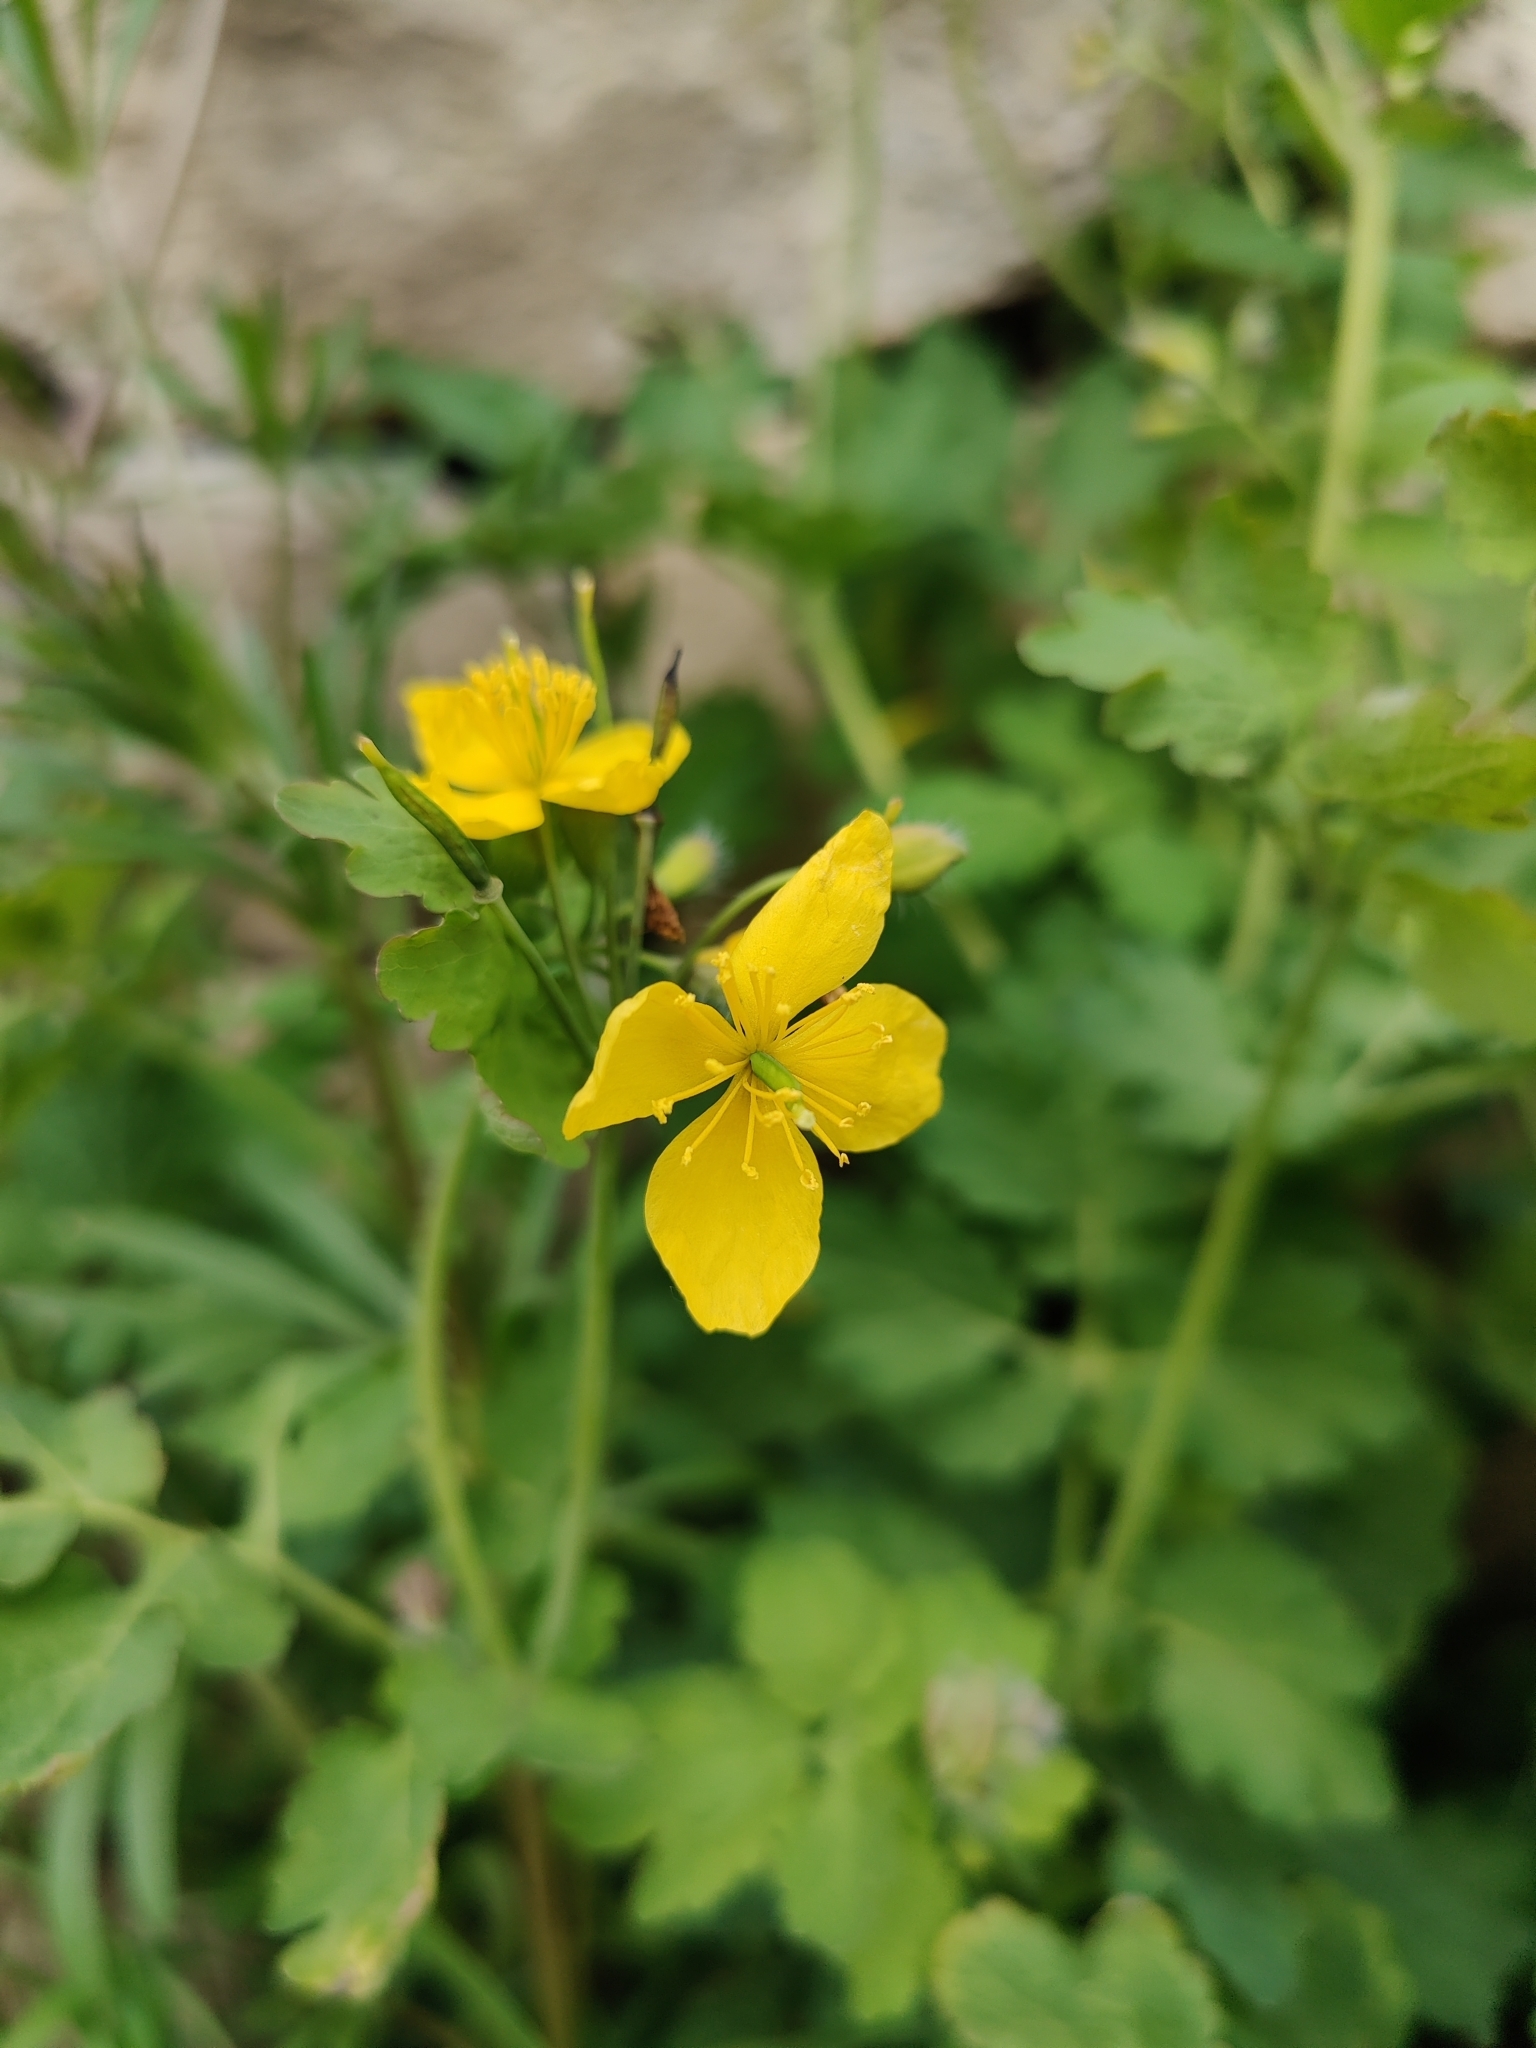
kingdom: Plantae
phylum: Tracheophyta
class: Magnoliopsida
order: Ranunculales
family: Papaveraceae
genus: Chelidonium
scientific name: Chelidonium majus
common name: Greater celandine
